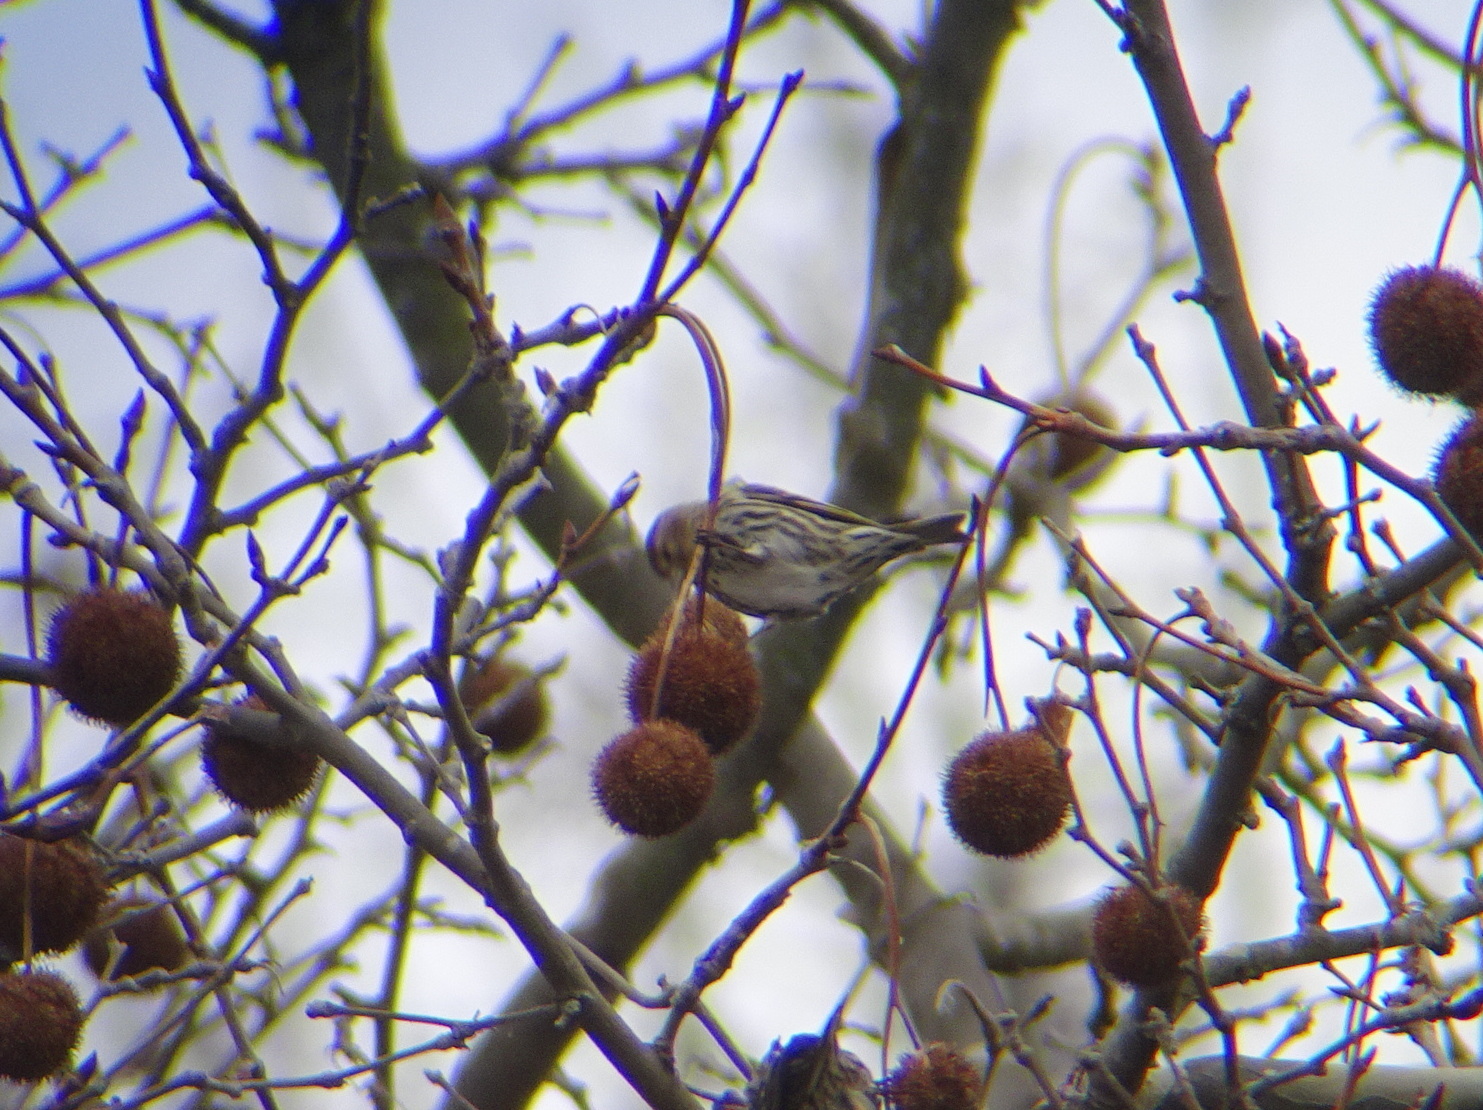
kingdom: Animalia
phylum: Chordata
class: Aves
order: Passeriformes
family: Fringillidae
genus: Spinus
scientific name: Spinus pinus
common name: Pine siskin
